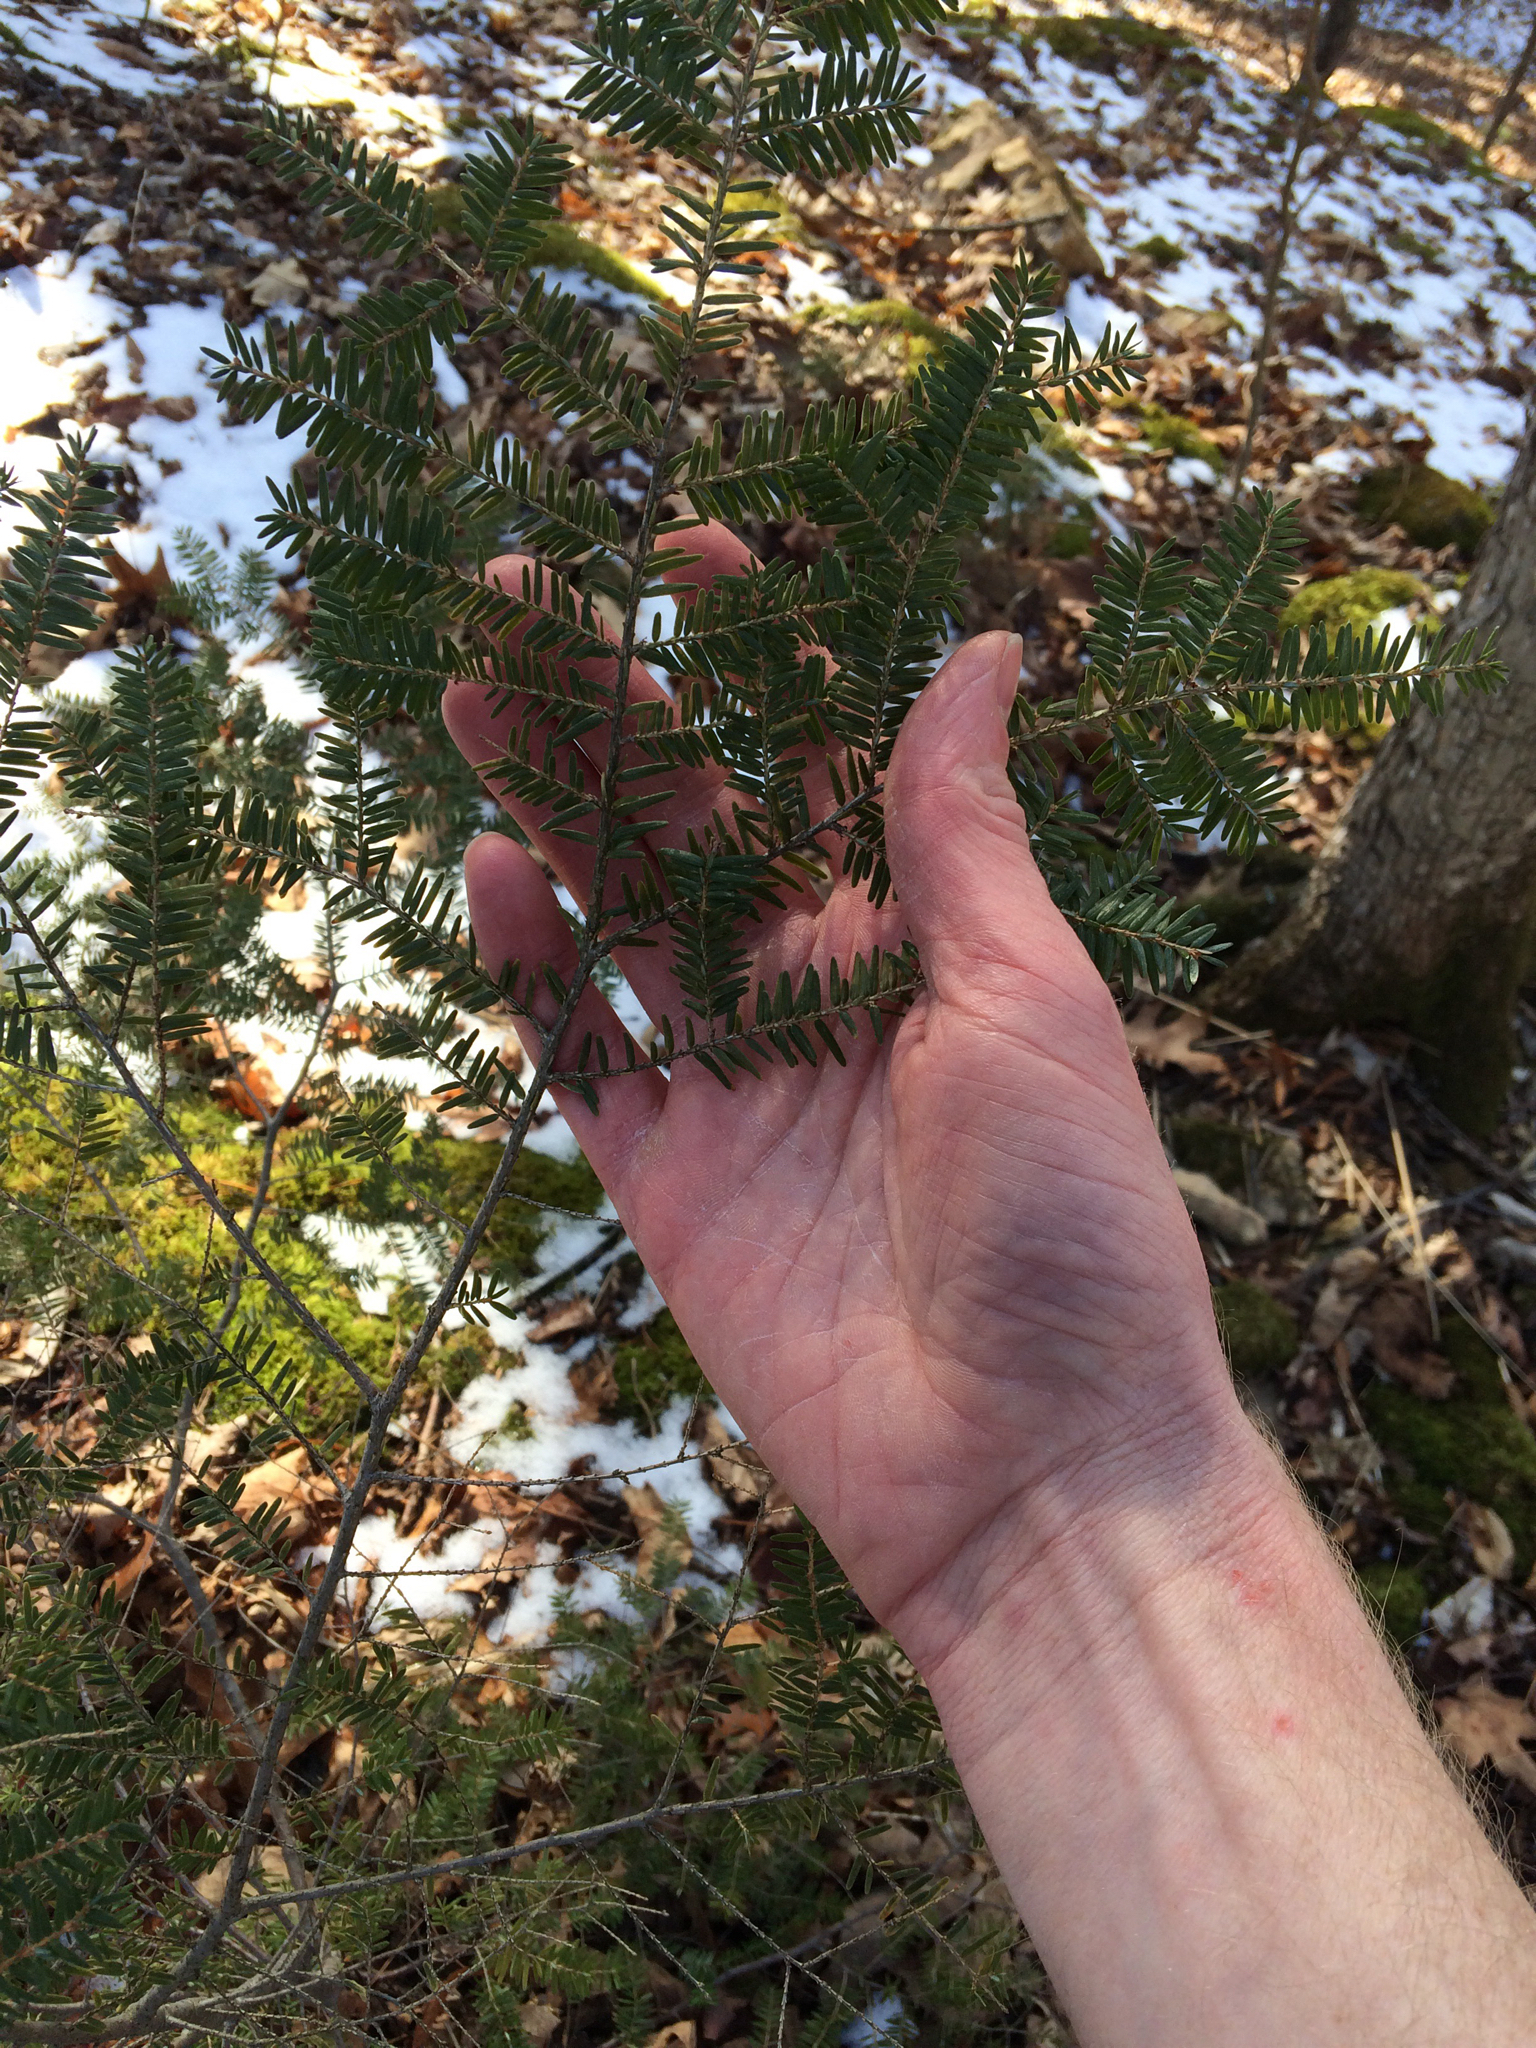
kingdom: Plantae
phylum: Tracheophyta
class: Pinopsida
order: Pinales
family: Pinaceae
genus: Tsuga
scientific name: Tsuga canadensis
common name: Eastern hemlock
